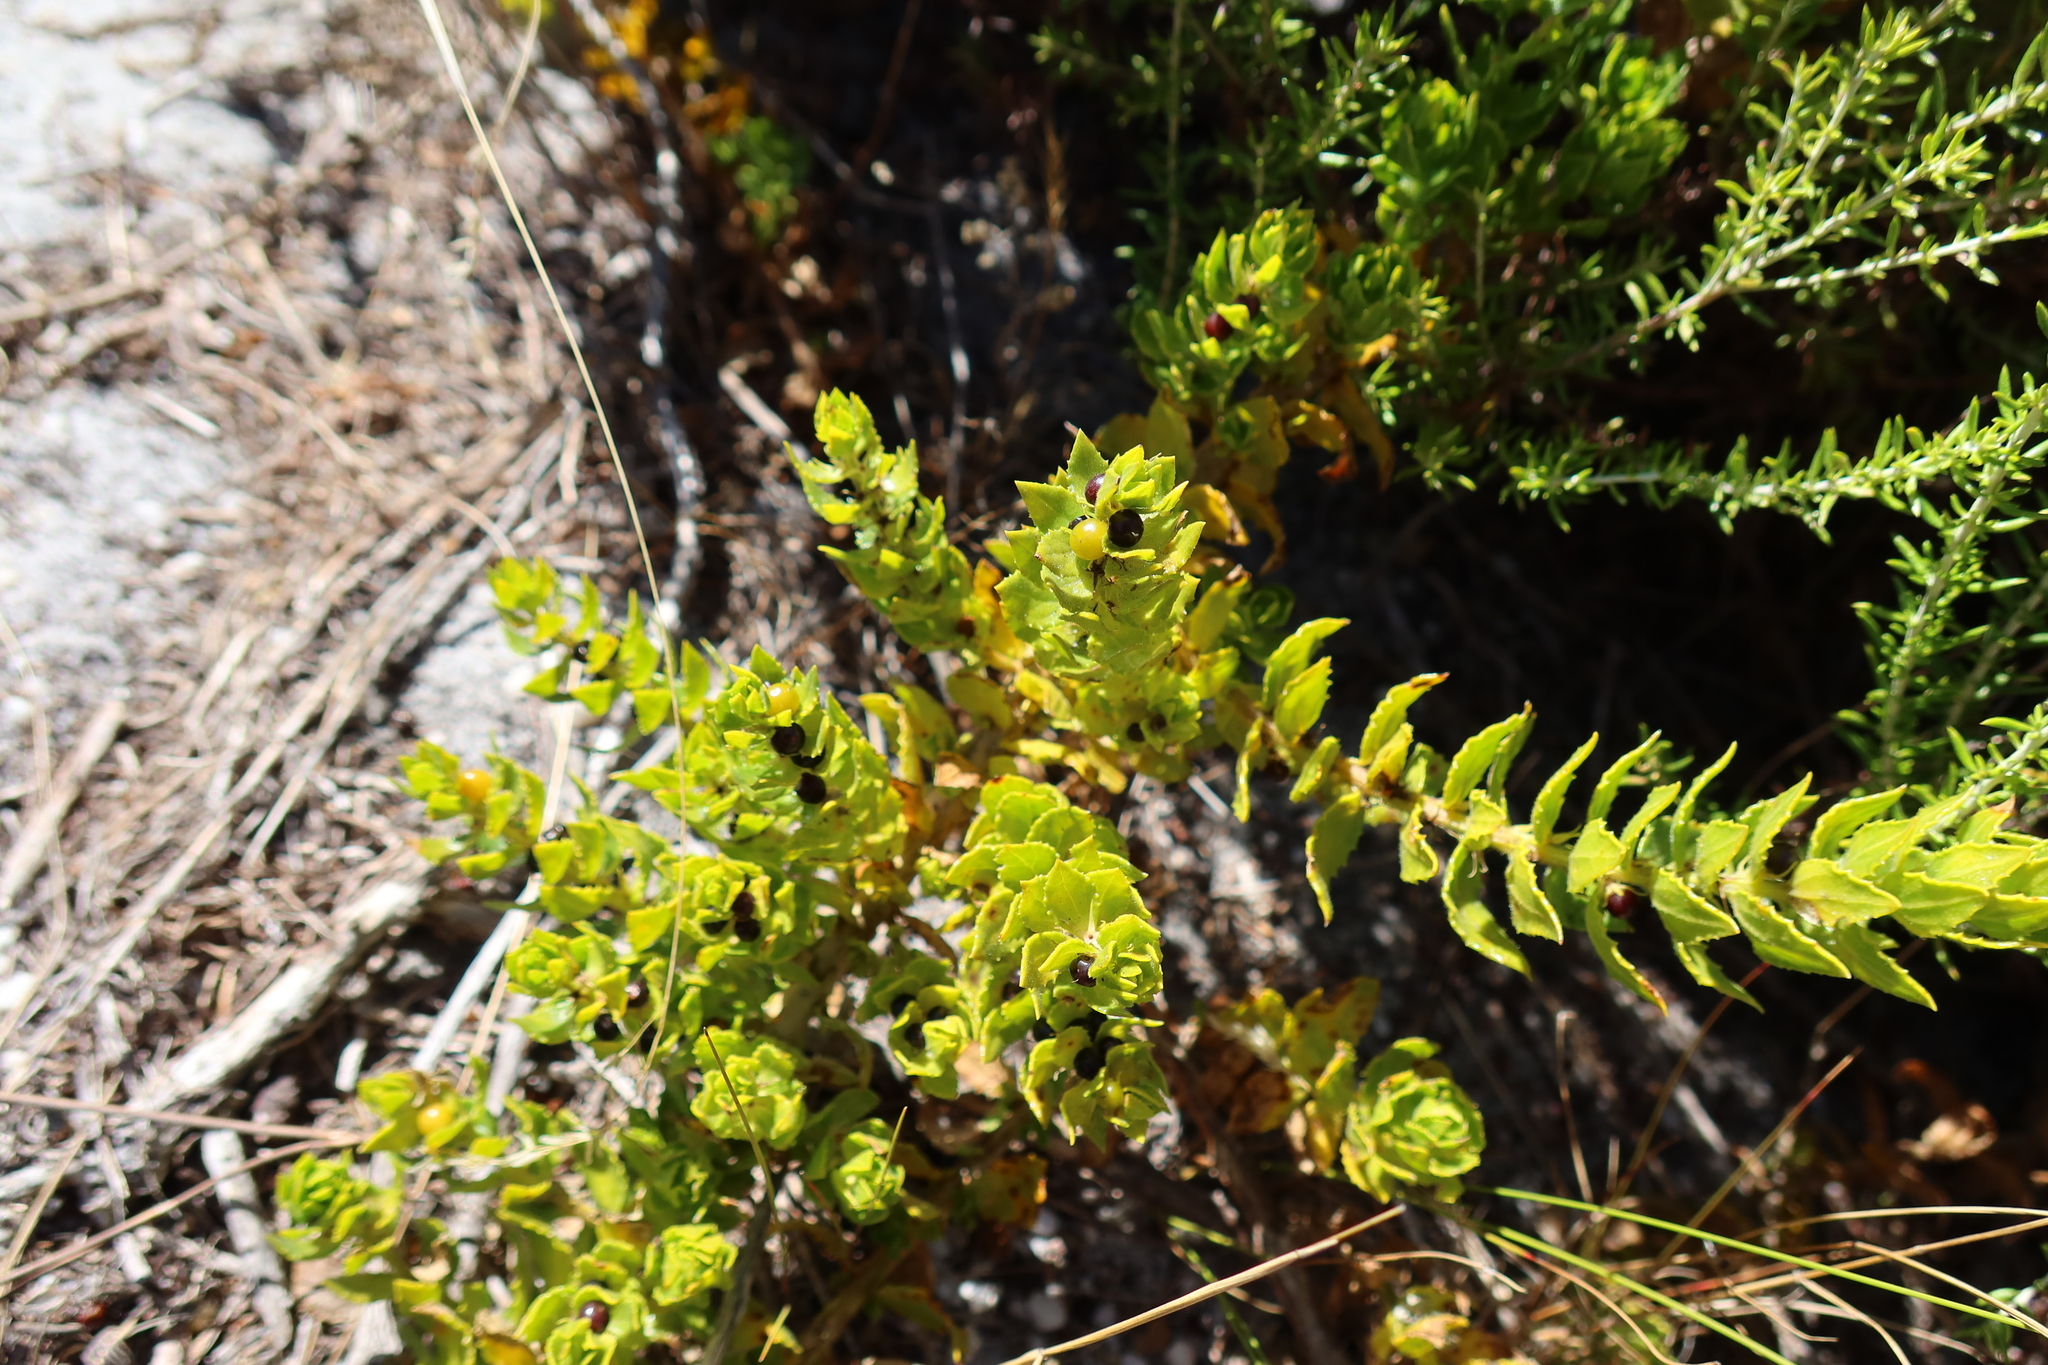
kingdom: Plantae
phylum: Tracheophyta
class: Magnoliopsida
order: Lamiales
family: Scrophulariaceae
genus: Oftia
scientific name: Oftia africana
